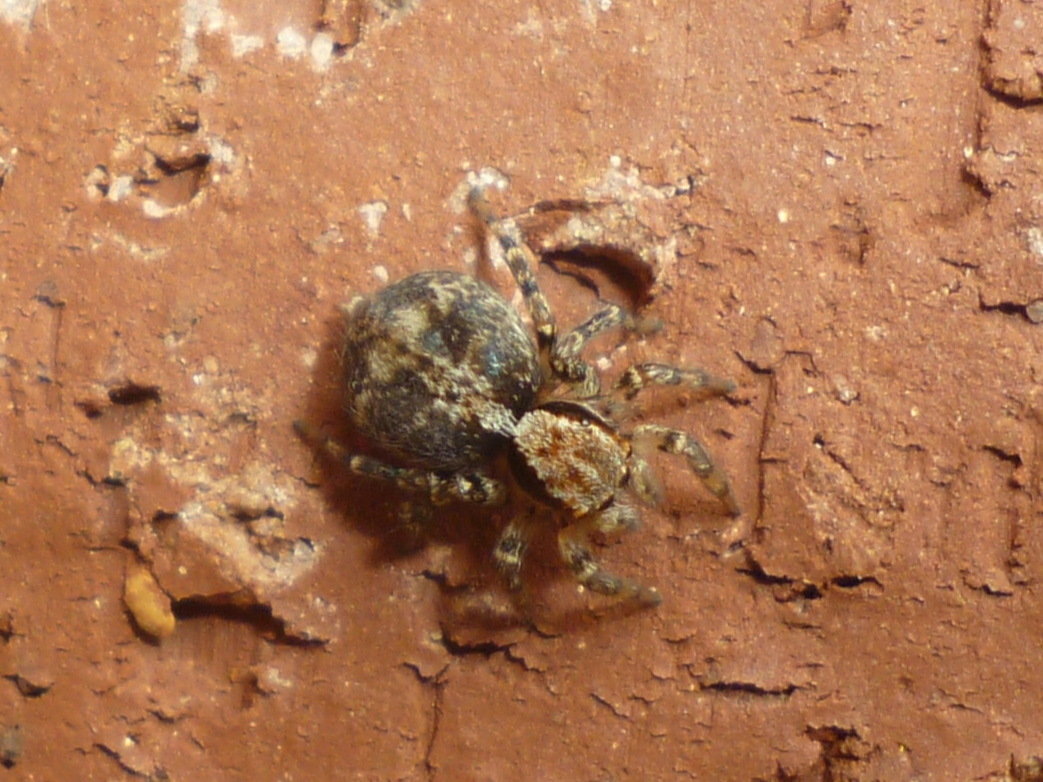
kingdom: Animalia
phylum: Arthropoda
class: Arachnida
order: Araneae
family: Salticidae
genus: Naphrys
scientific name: Naphrys pulex
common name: Flea jumping spider
